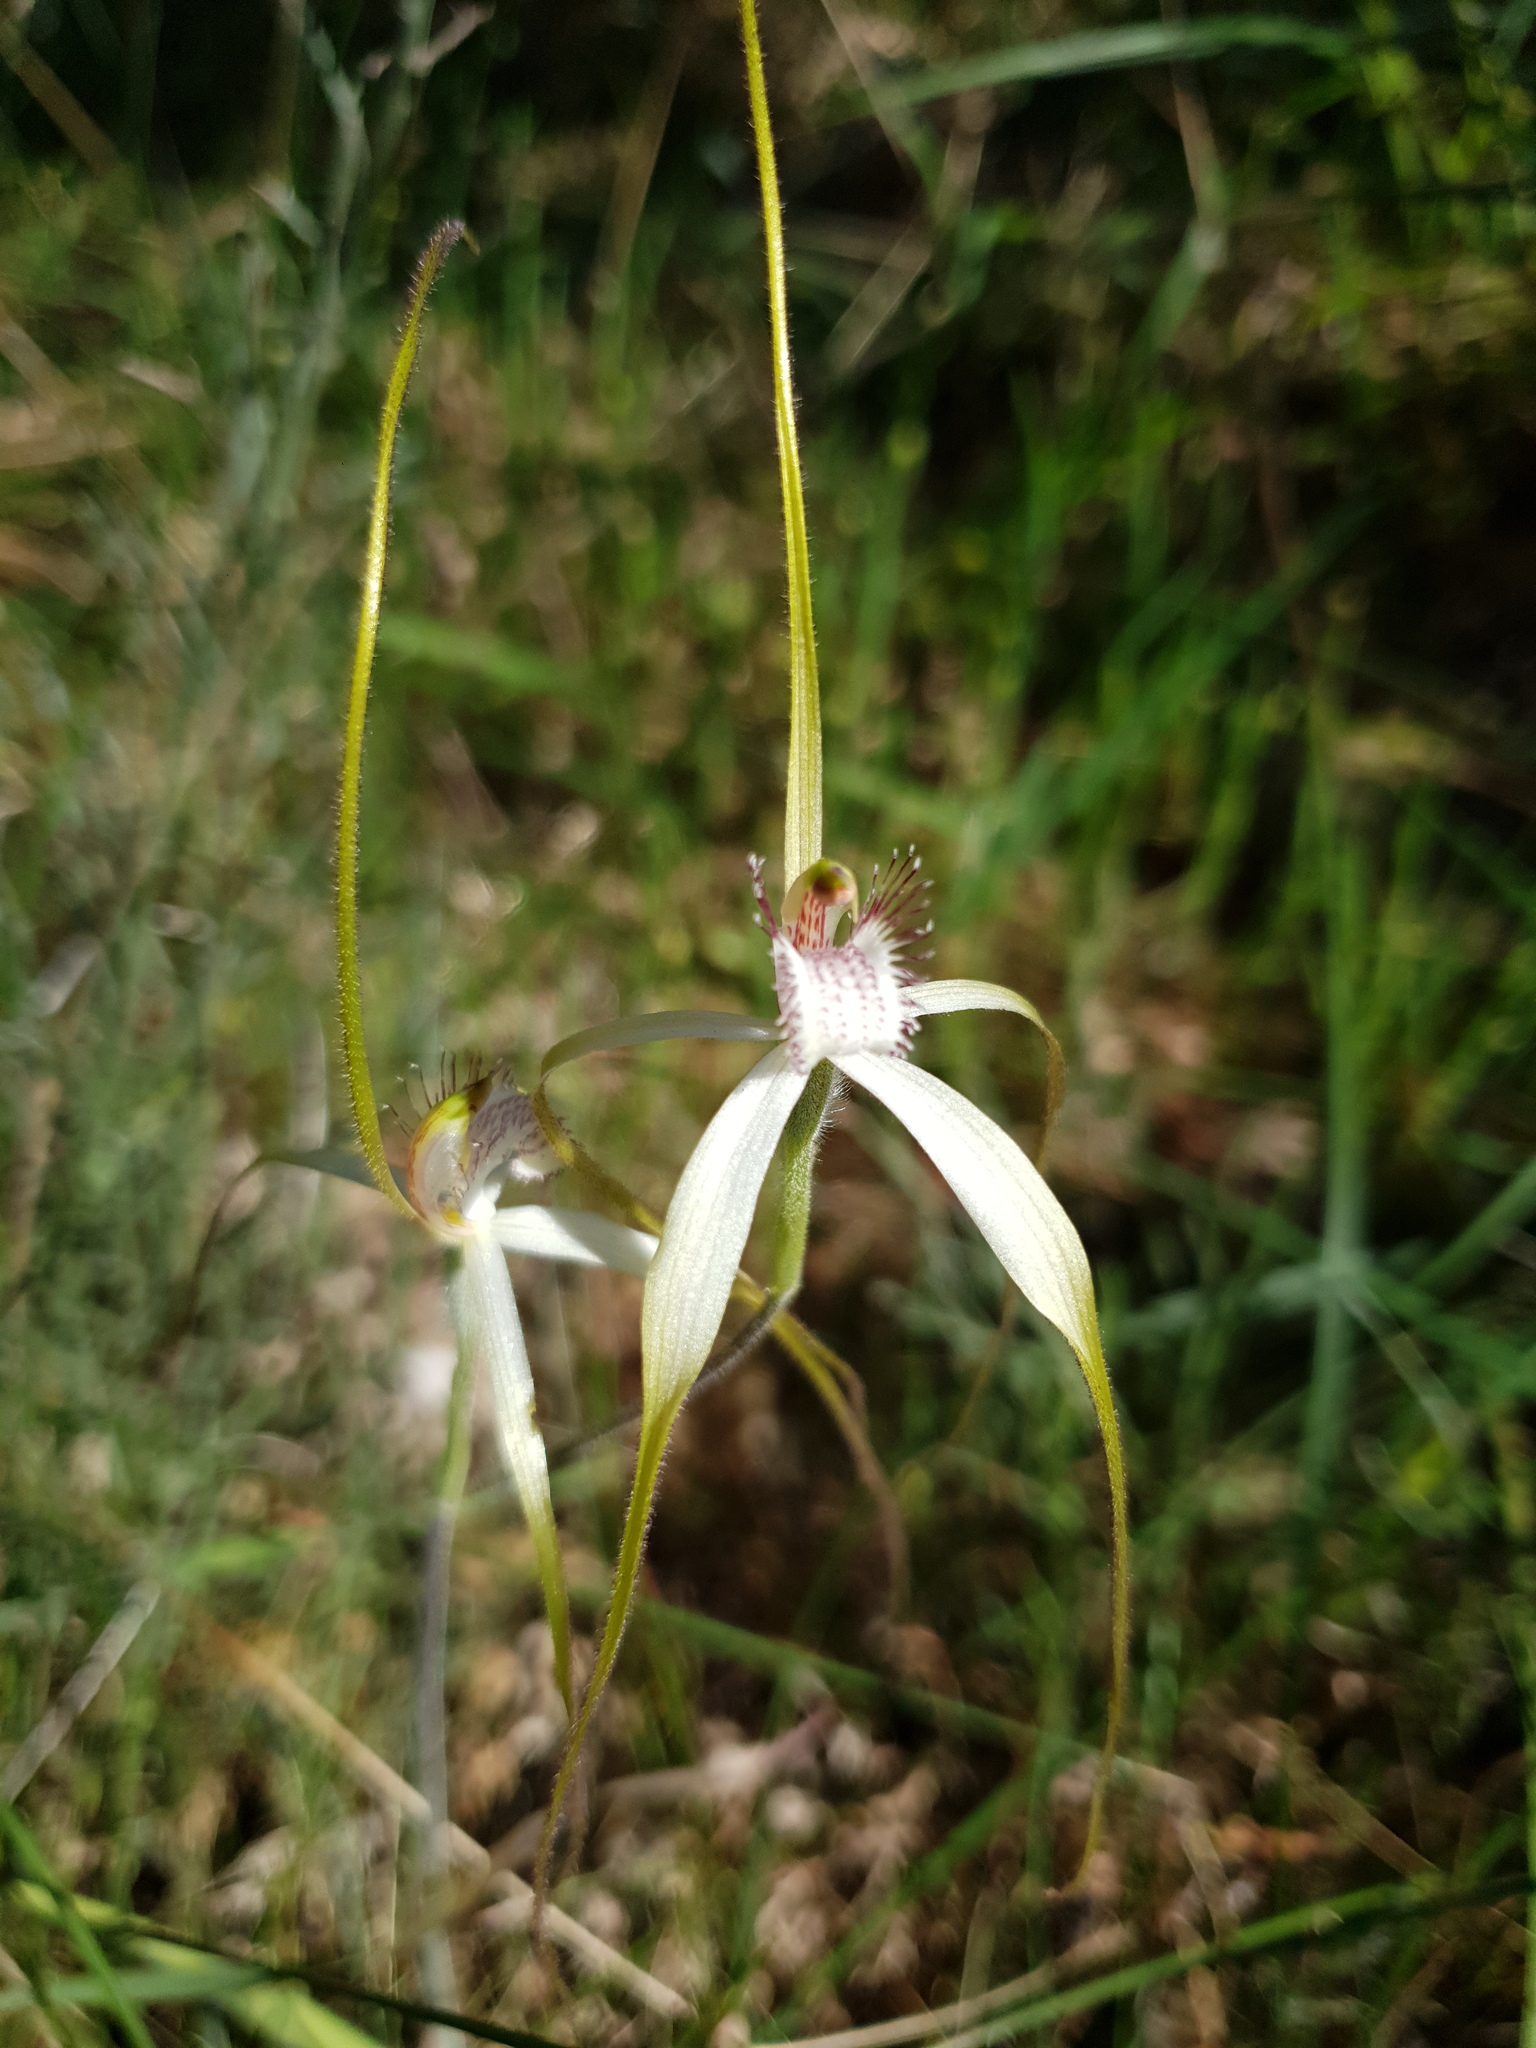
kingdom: Plantae
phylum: Tracheophyta
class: Liliopsida
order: Asparagales
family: Orchidaceae
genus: Caladenia
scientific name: Caladenia longicauda
